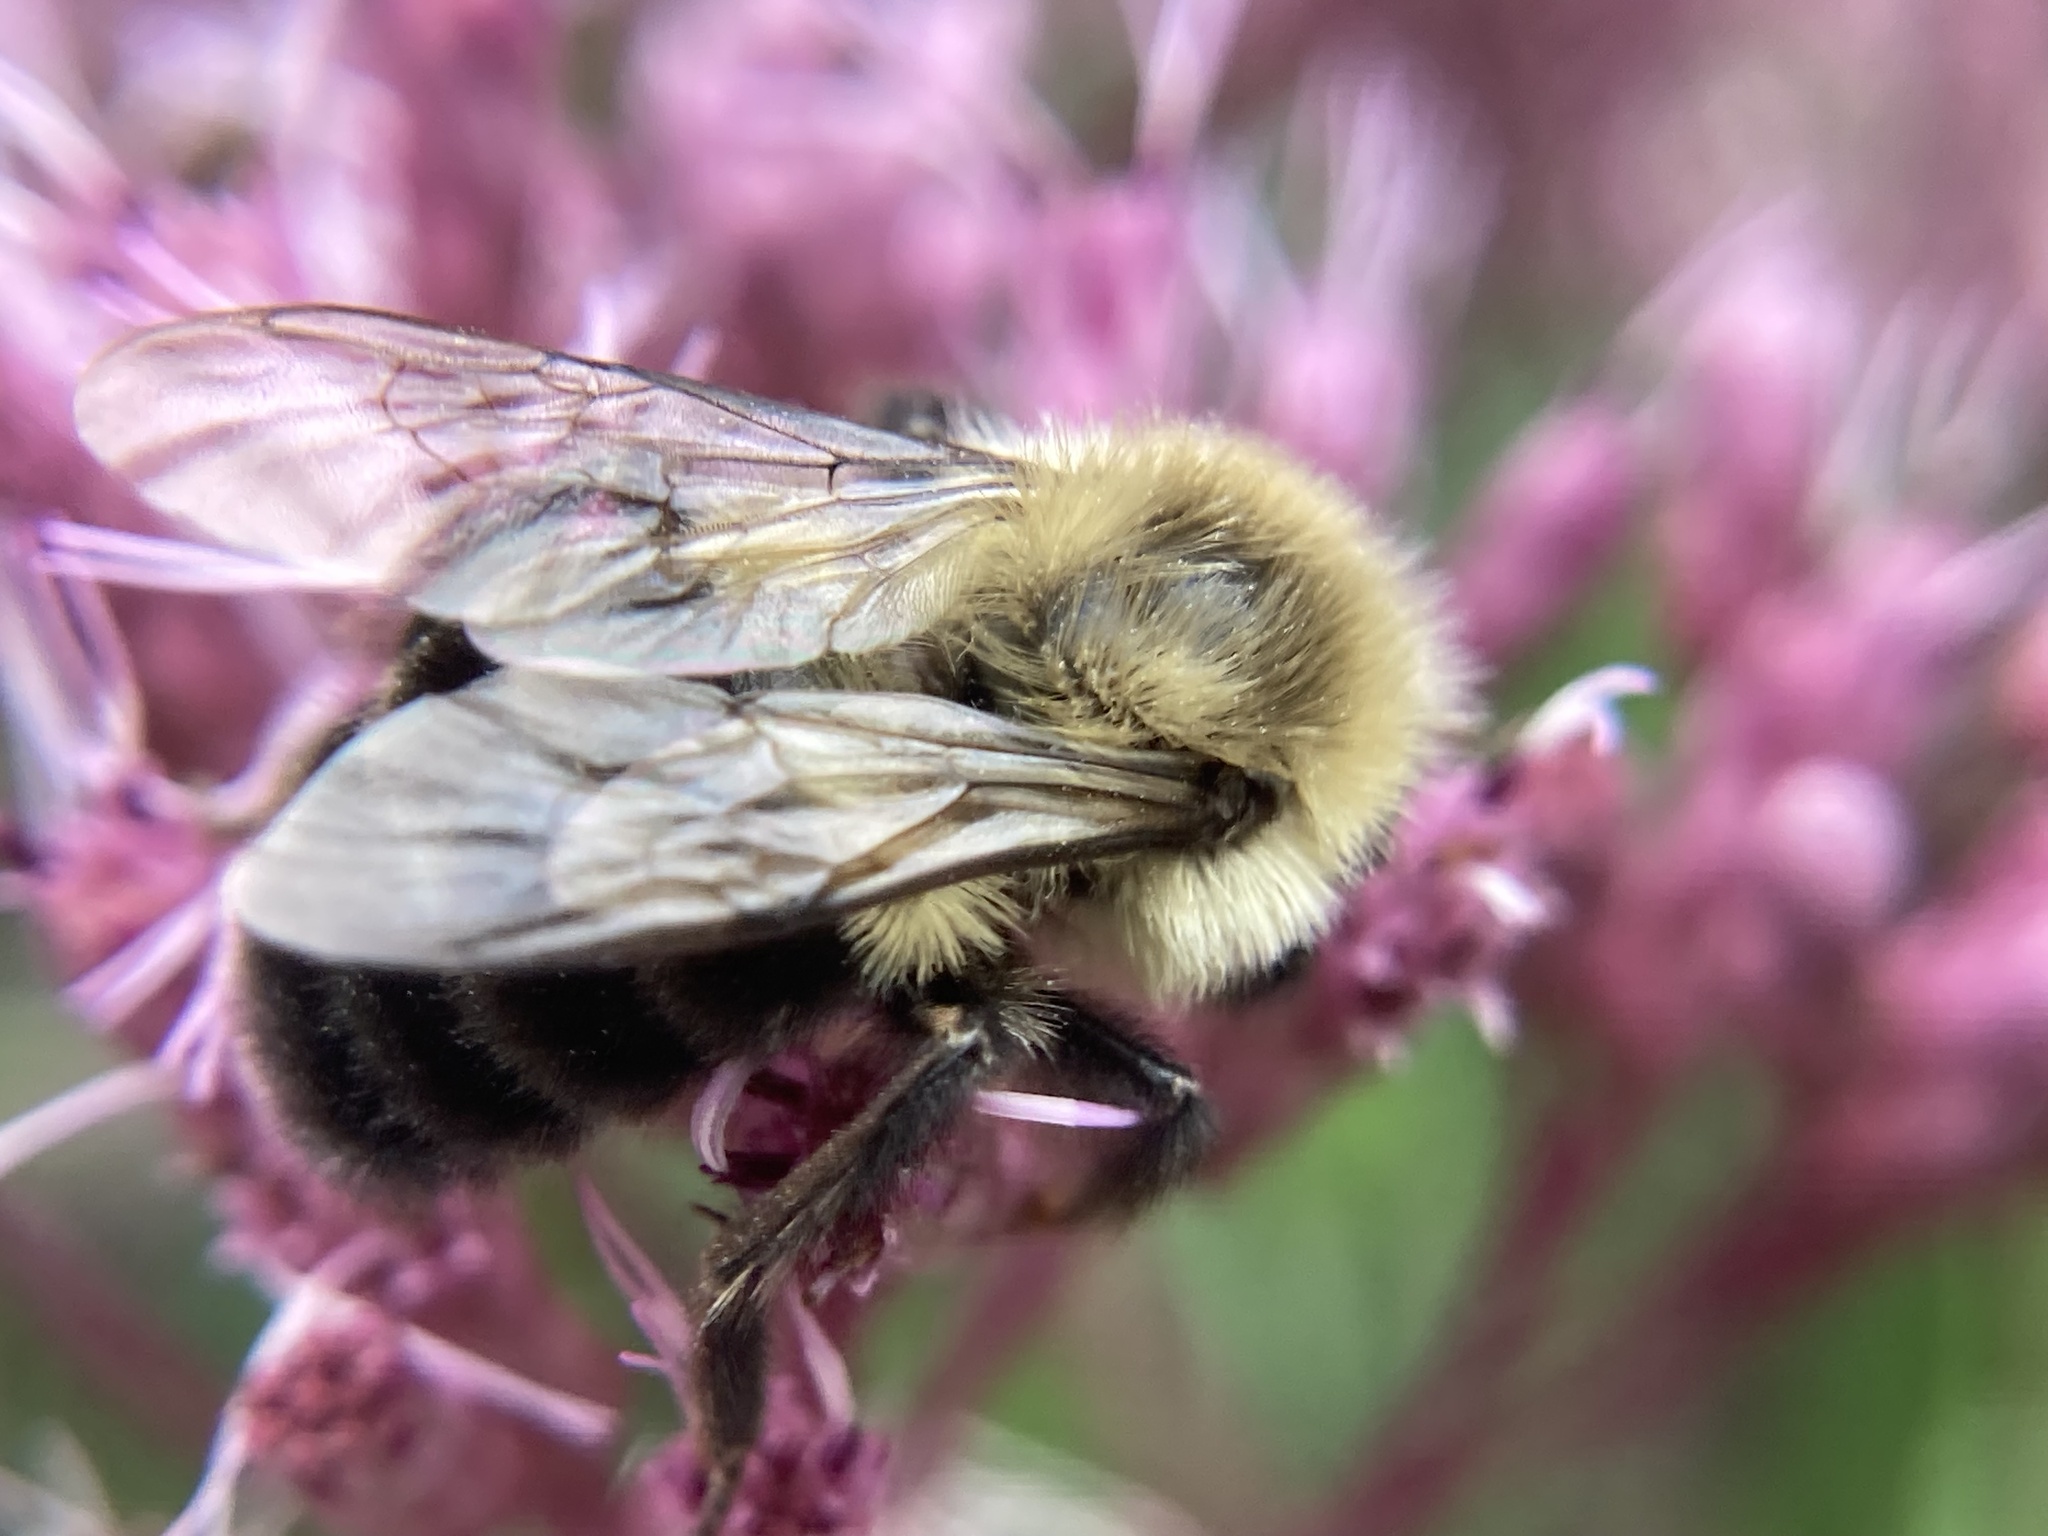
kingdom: Animalia
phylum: Arthropoda
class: Insecta
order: Hymenoptera
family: Apidae
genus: Bombus
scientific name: Bombus impatiens
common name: Common eastern bumble bee
